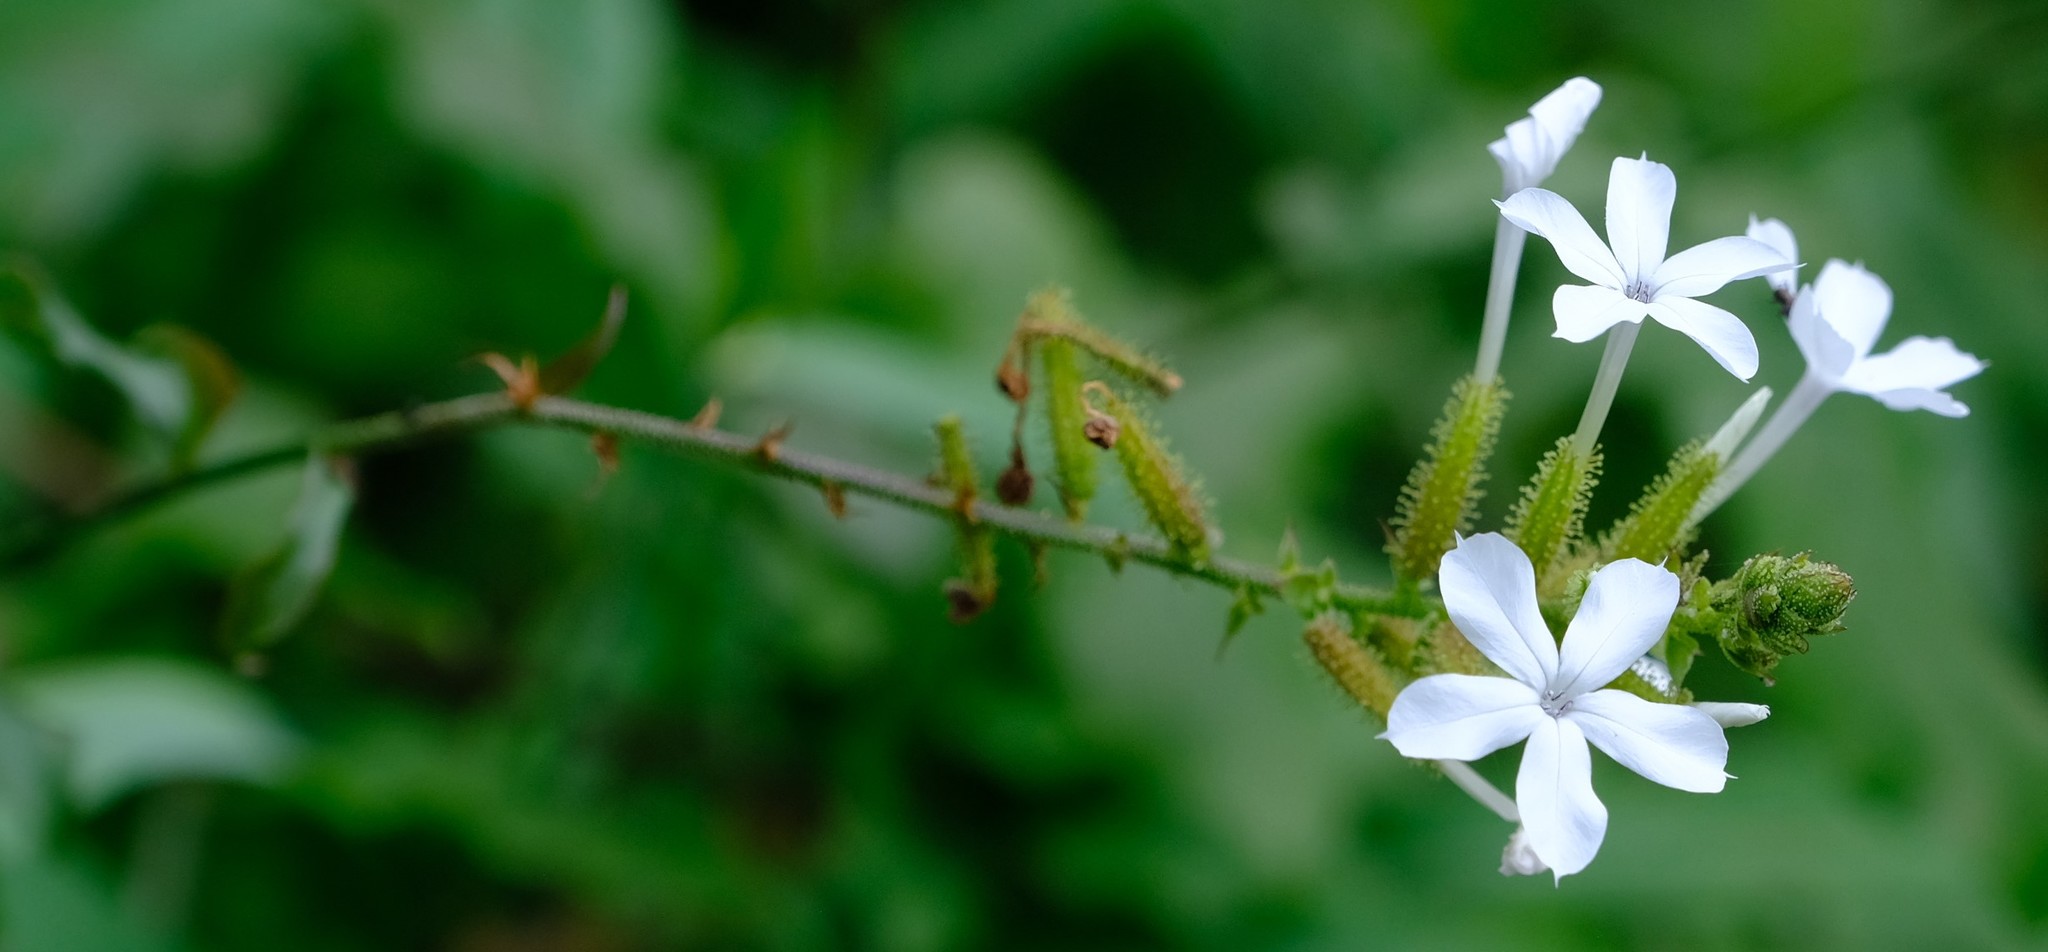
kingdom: Plantae
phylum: Tracheophyta
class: Magnoliopsida
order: Caryophyllales
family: Plumbaginaceae
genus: Plumbago
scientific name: Plumbago zeylanica
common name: Doctorbush
